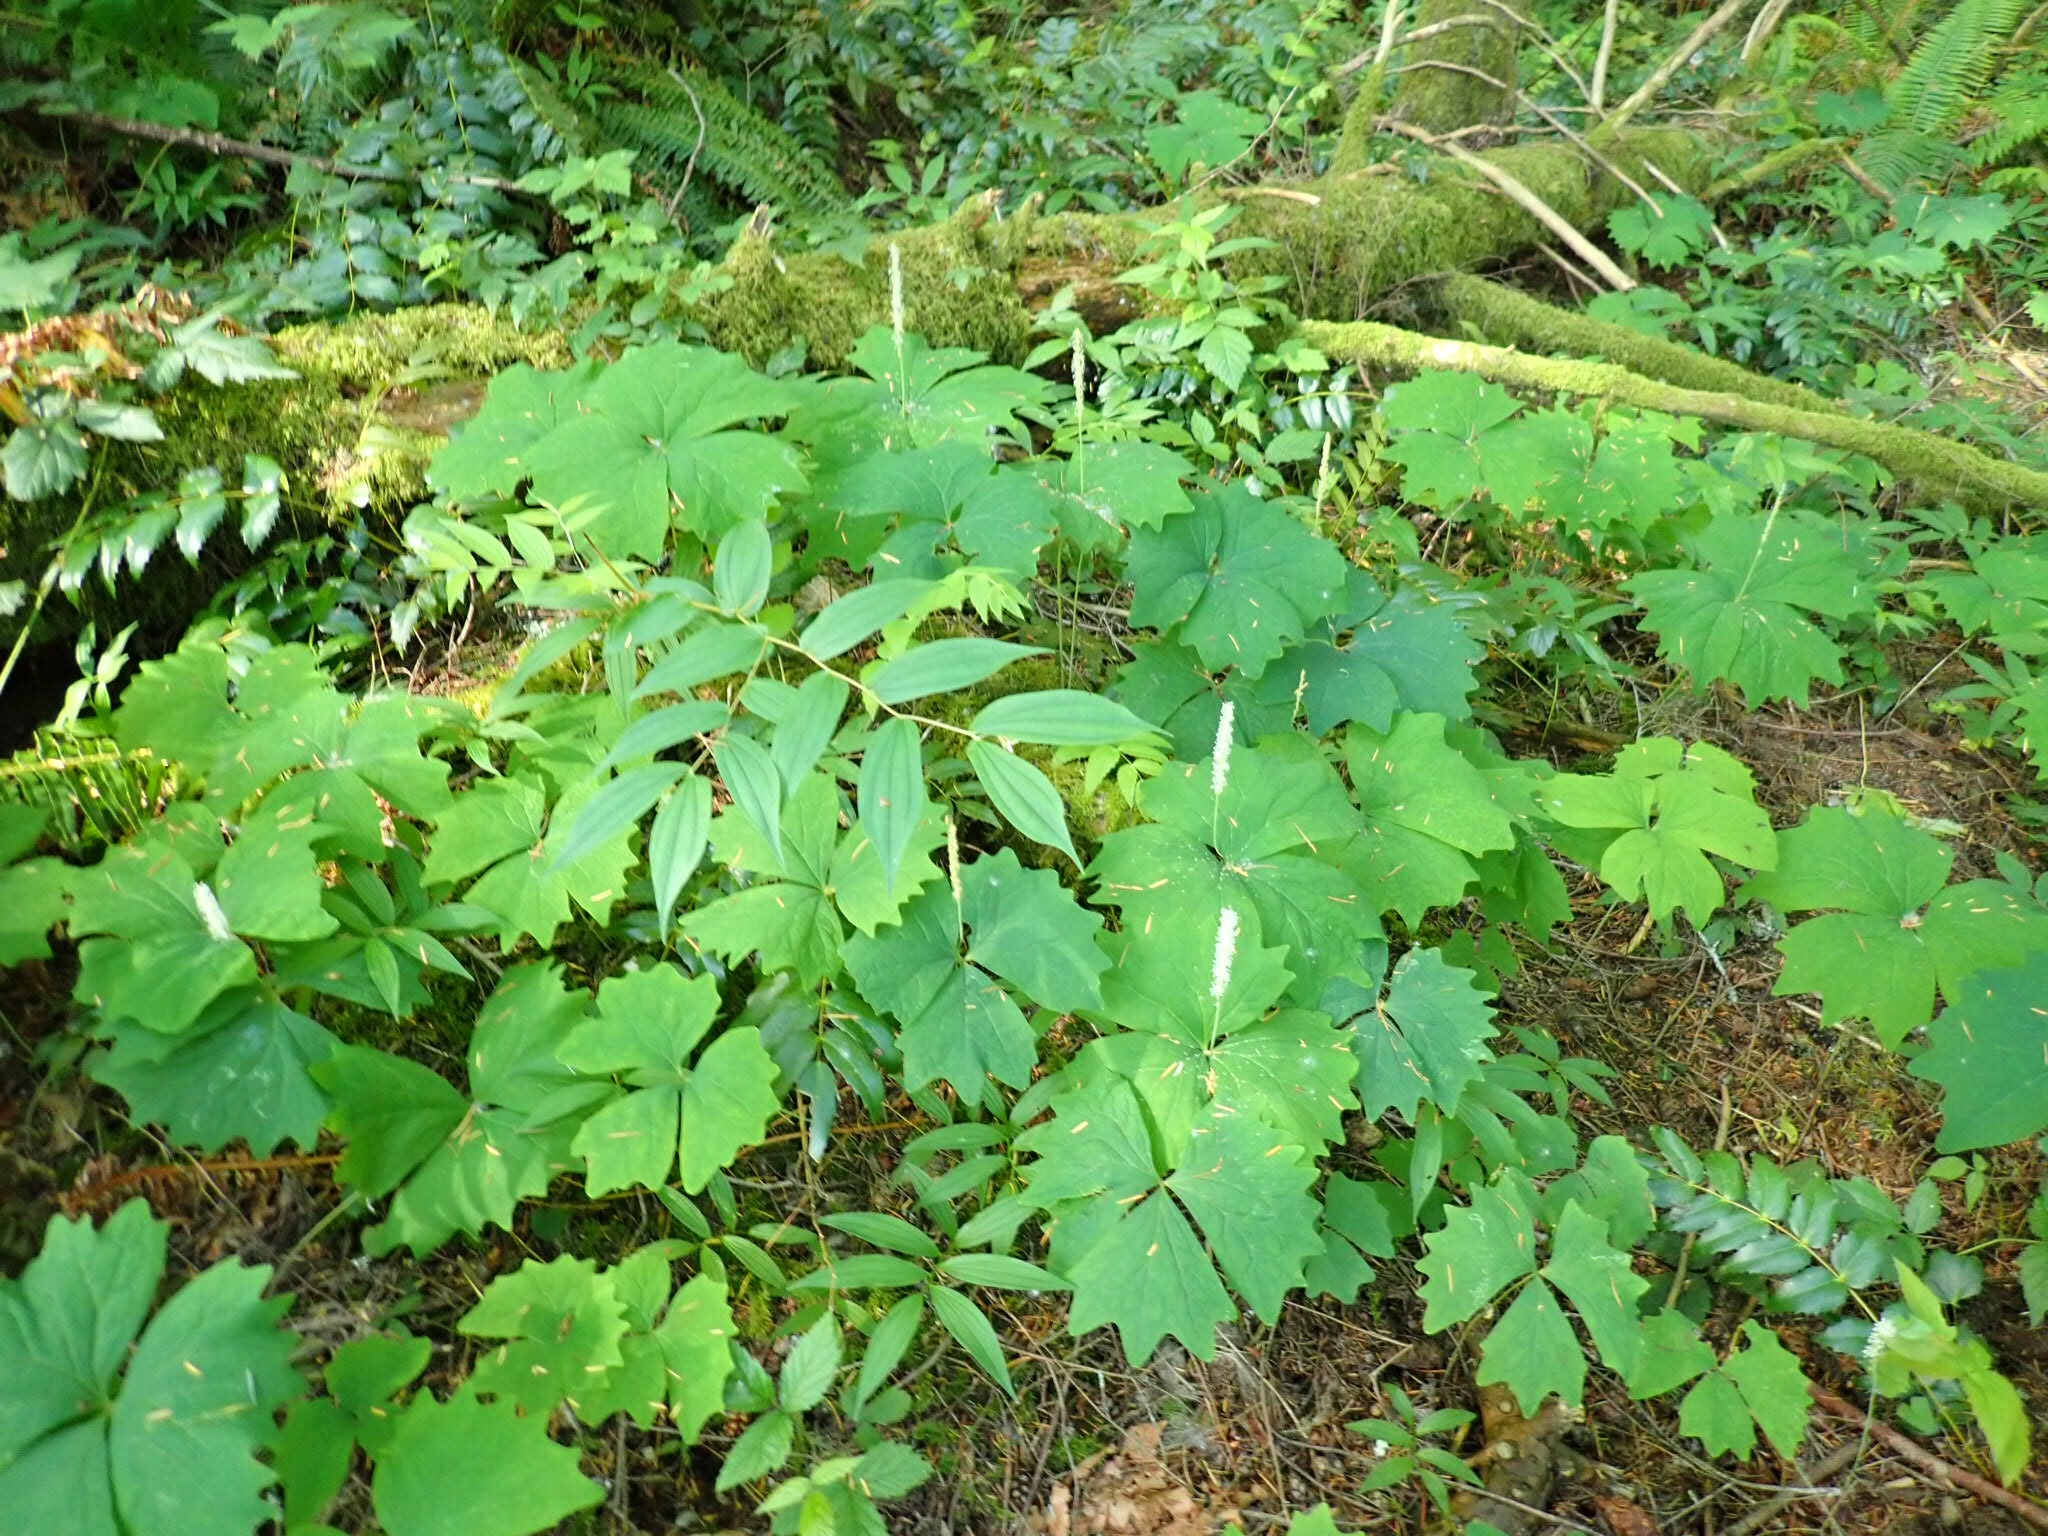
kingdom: Plantae
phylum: Tracheophyta
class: Magnoliopsida
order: Ranunculales
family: Berberidaceae
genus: Achlys
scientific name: Achlys triphylla
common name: Vanilla-leaf
